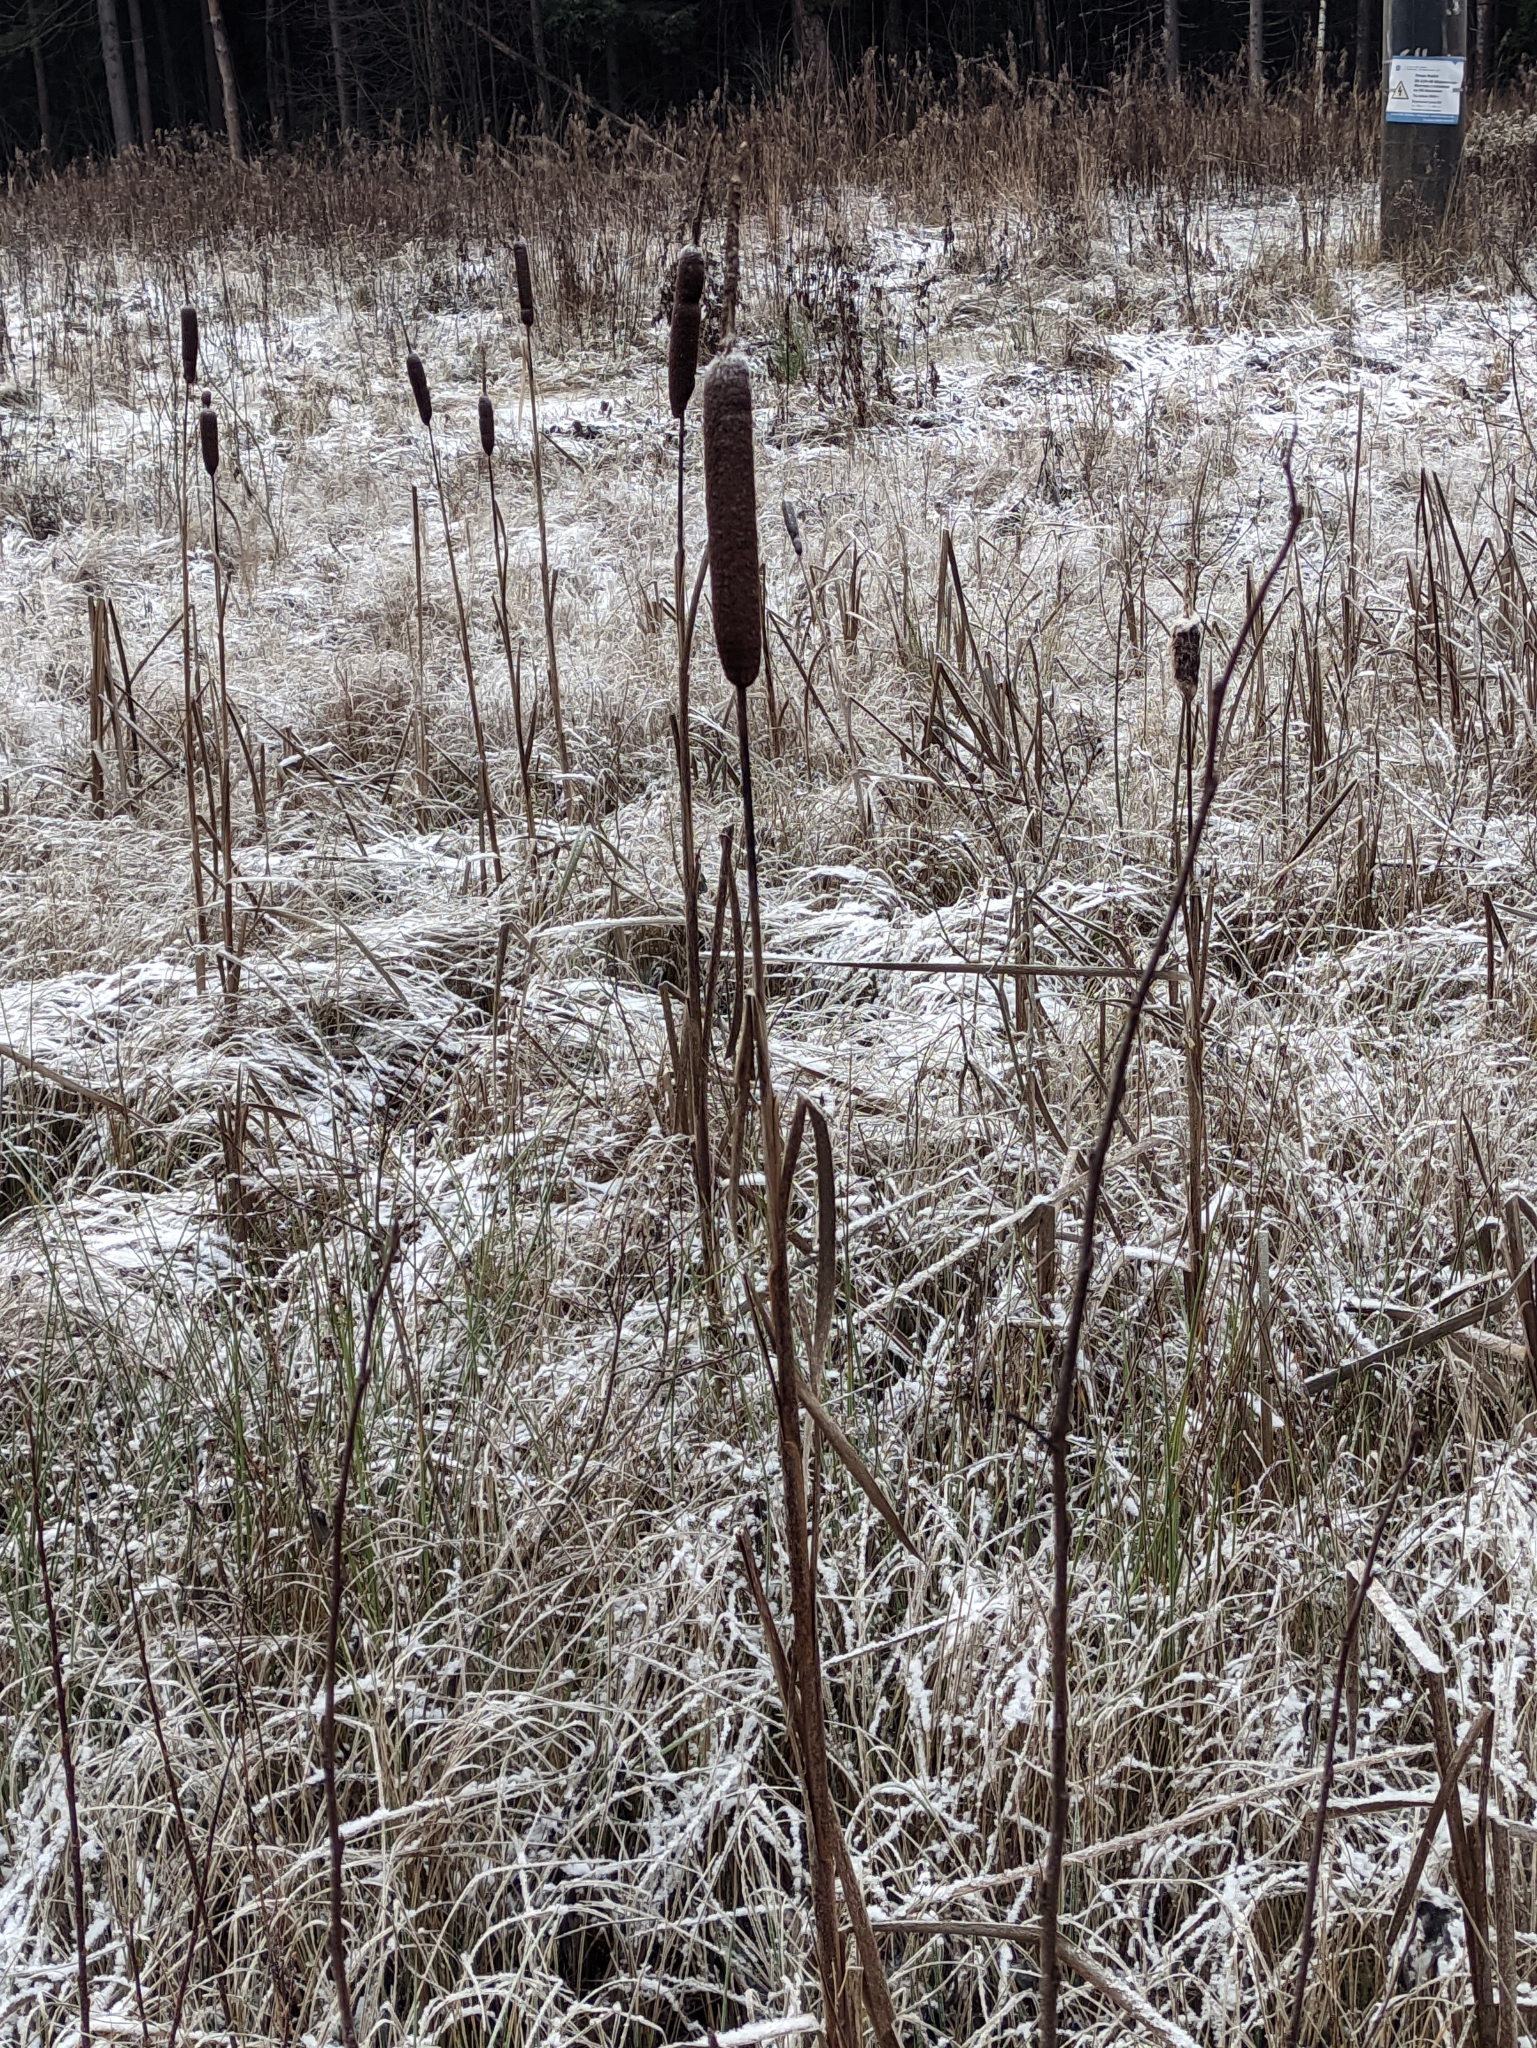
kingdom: Plantae
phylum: Tracheophyta
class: Liliopsida
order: Poales
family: Typhaceae
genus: Typha
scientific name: Typha latifolia
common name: Broadleaf cattail
